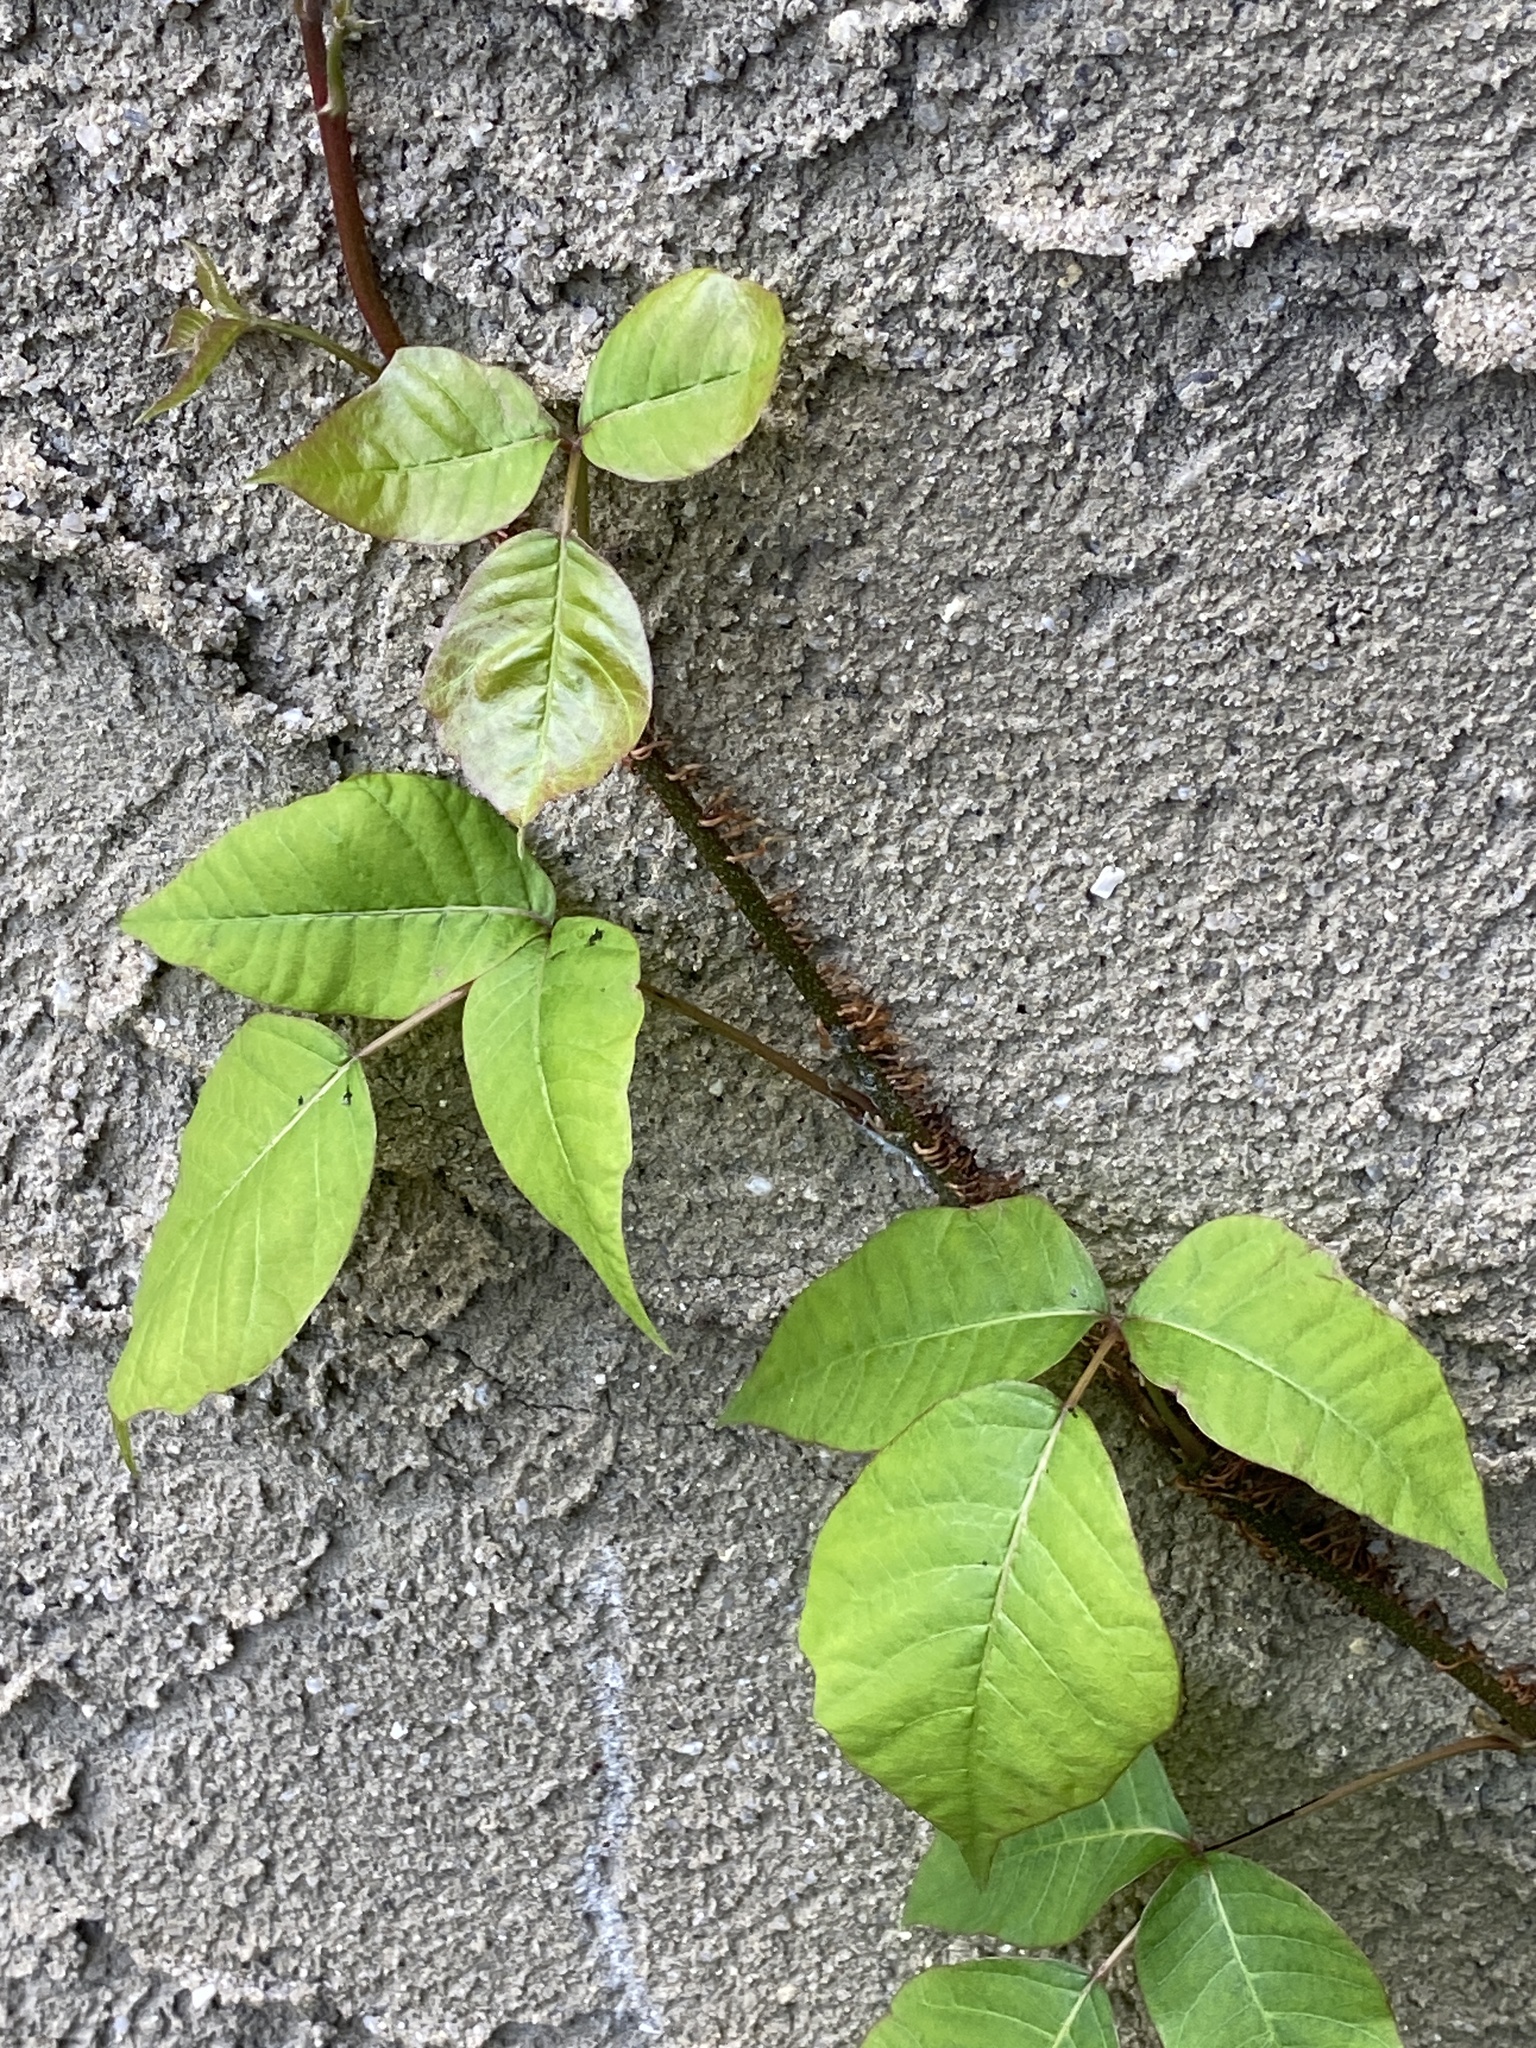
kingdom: Plantae
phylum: Tracheophyta
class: Magnoliopsida
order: Sapindales
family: Anacardiaceae
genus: Toxicodendron
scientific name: Toxicodendron radicans
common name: Poison ivy
